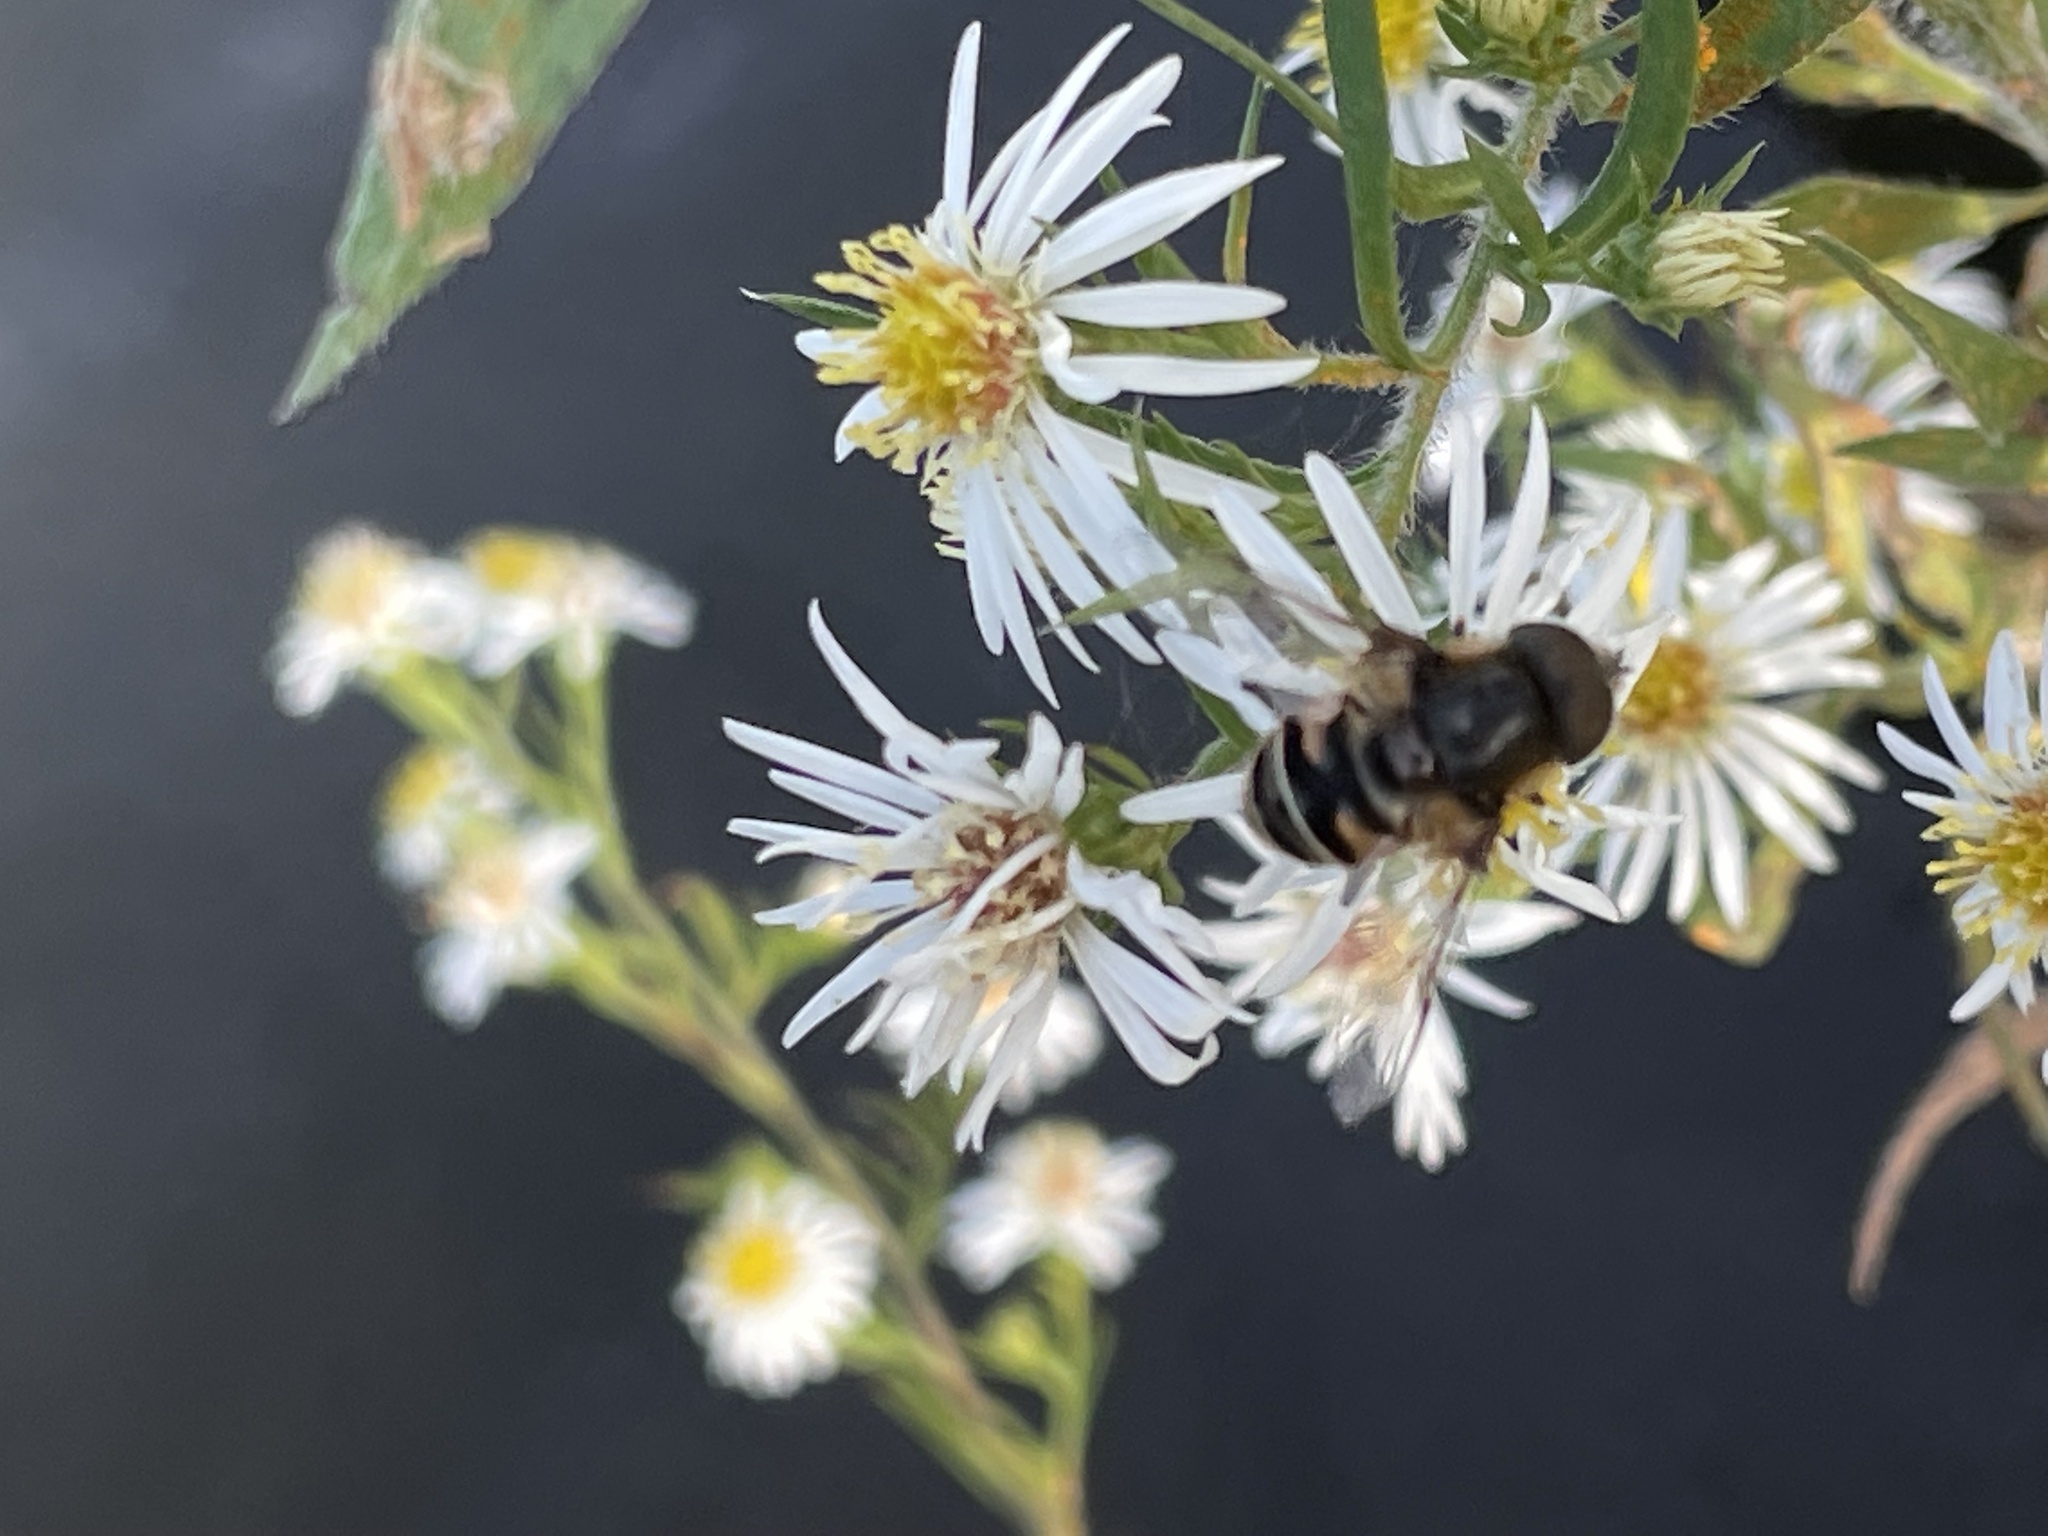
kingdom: Animalia
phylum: Arthropoda
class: Insecta
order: Diptera
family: Syrphidae
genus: Eristalis
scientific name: Eristalis dimidiata
